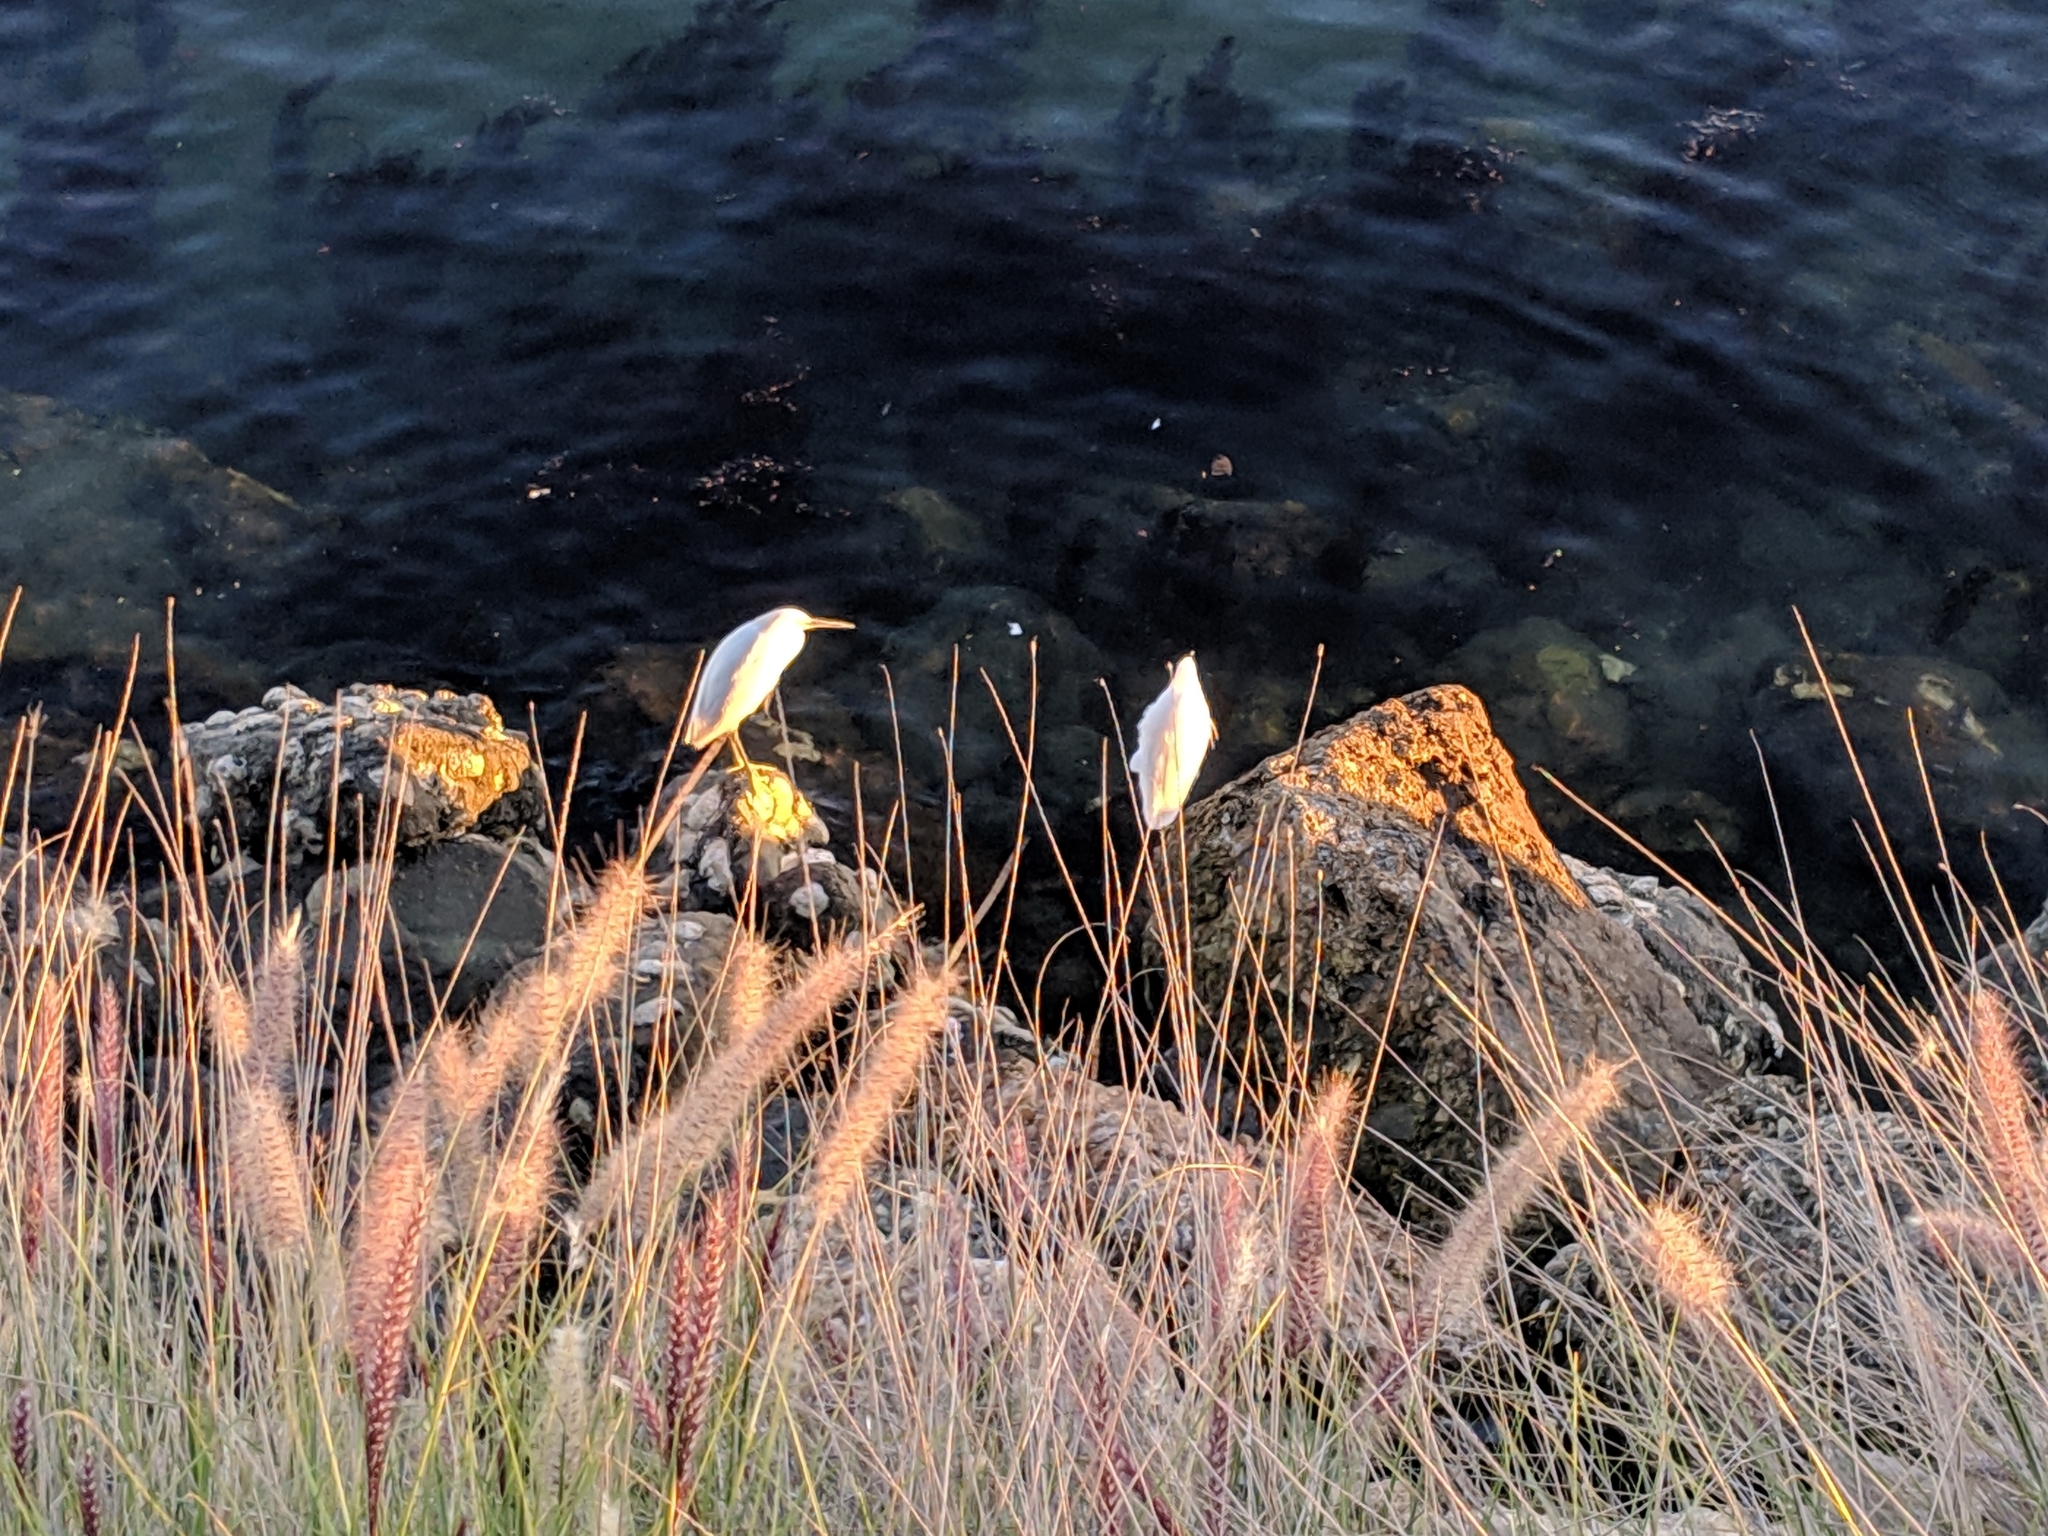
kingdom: Animalia
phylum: Chordata
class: Aves
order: Pelecaniformes
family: Ardeidae
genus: Bubulcus
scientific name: Bubulcus ibis
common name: Cattle egret
